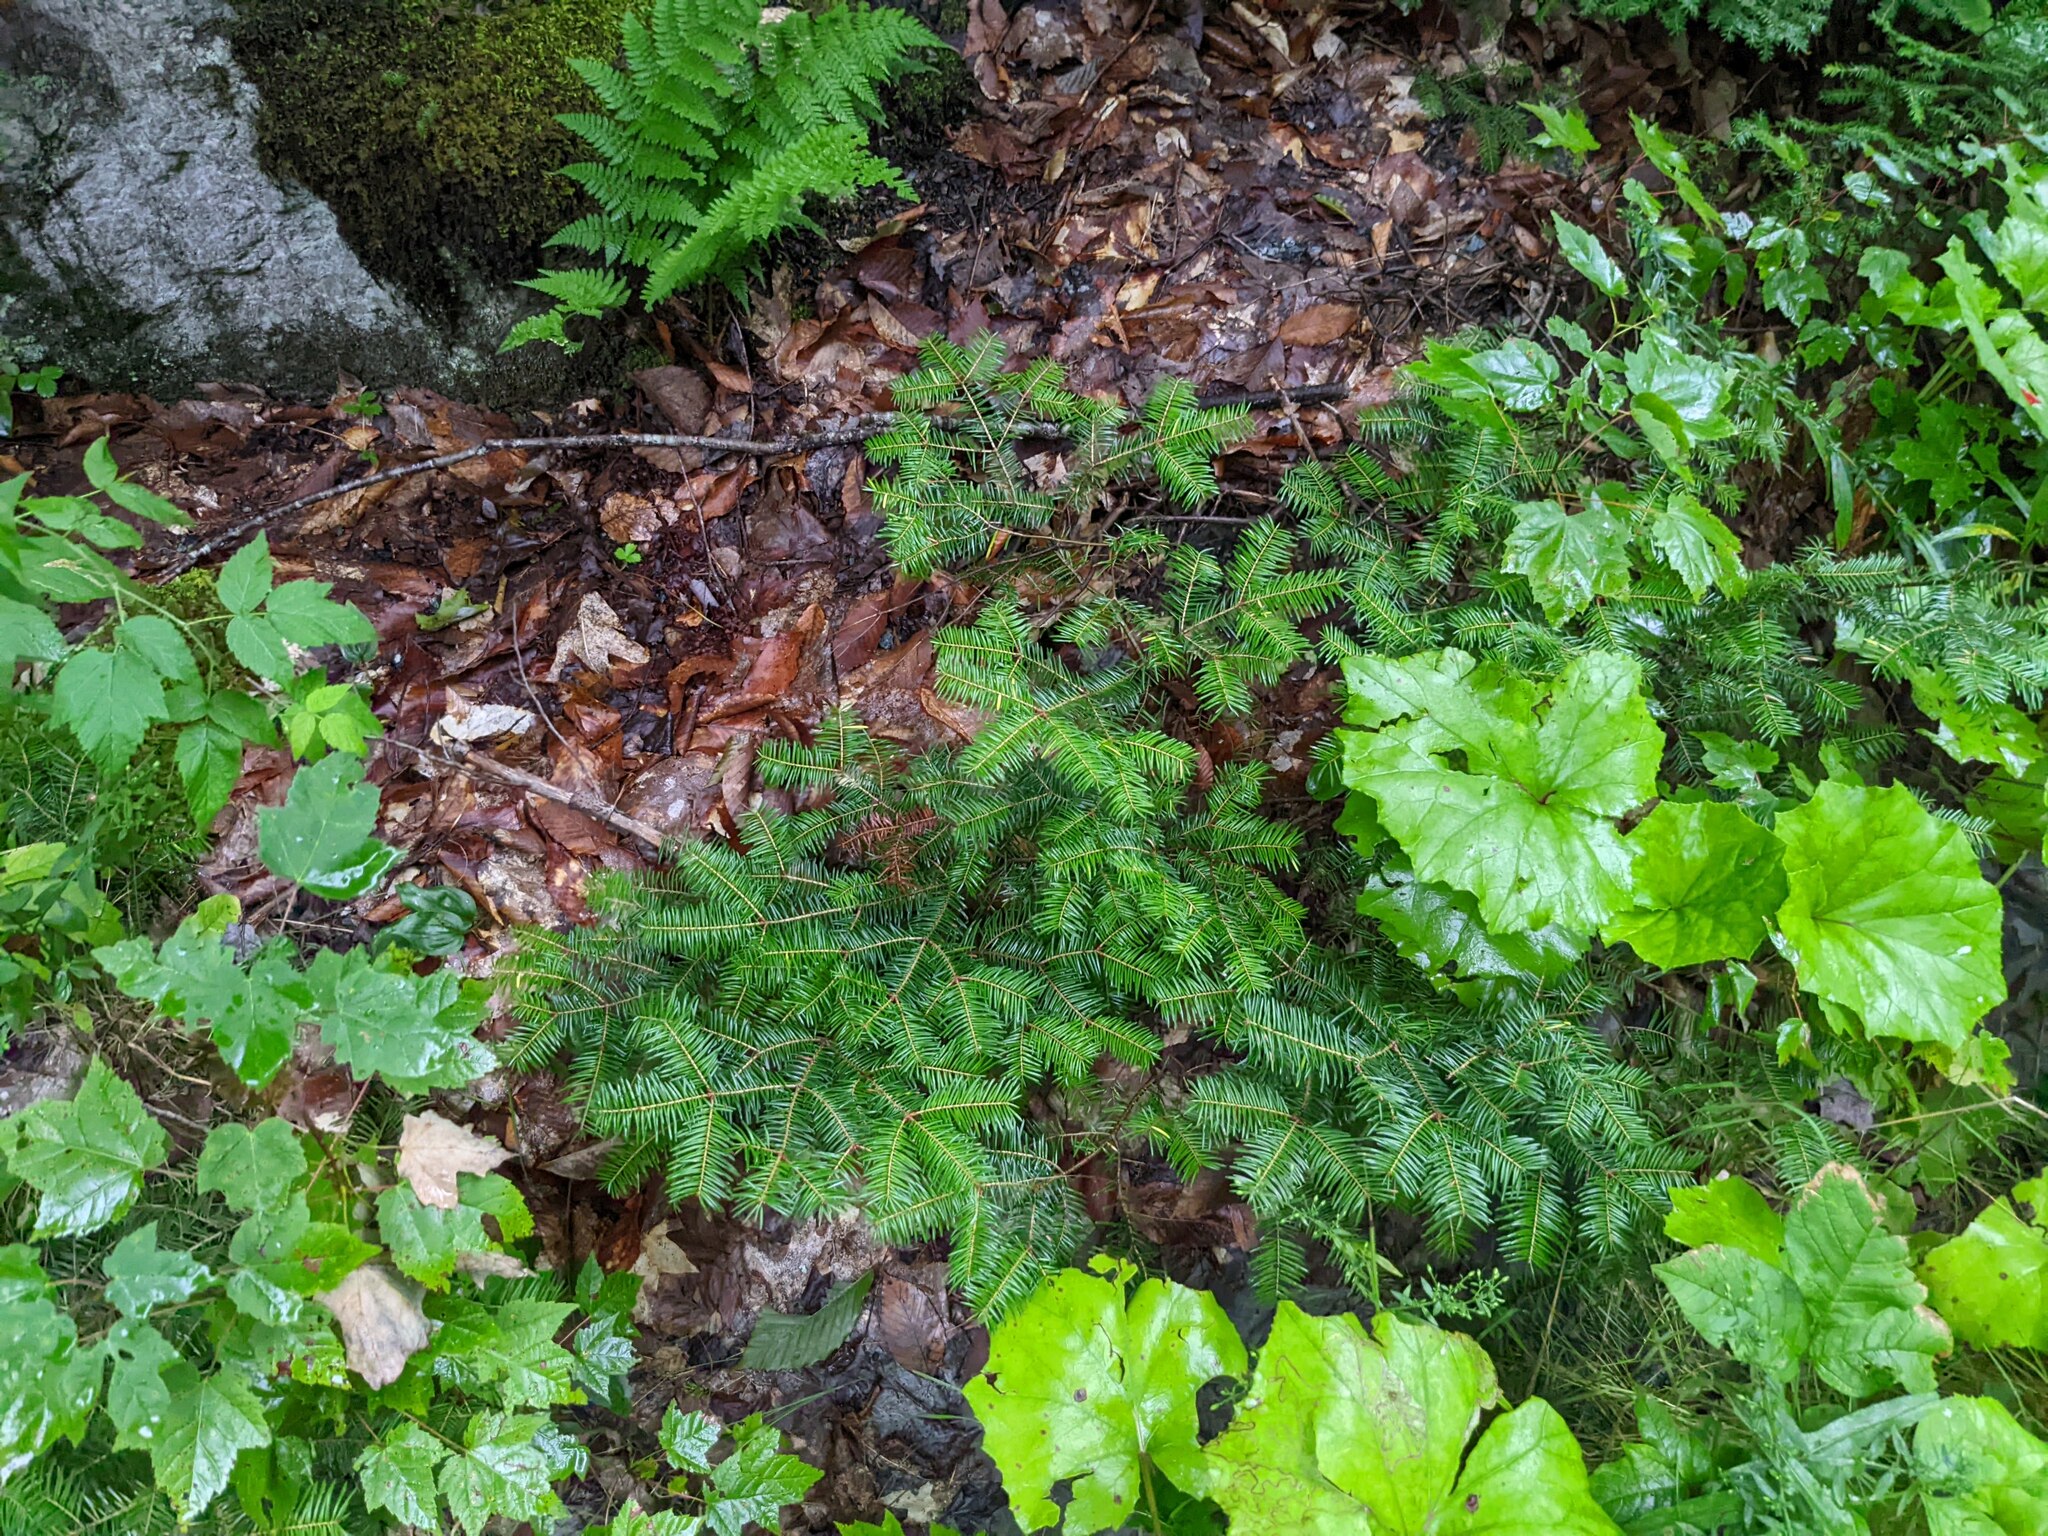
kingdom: Plantae
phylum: Tracheophyta
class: Pinopsida
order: Pinales
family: Pinaceae
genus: Abies
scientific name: Abies balsamea
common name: Balsam fir
